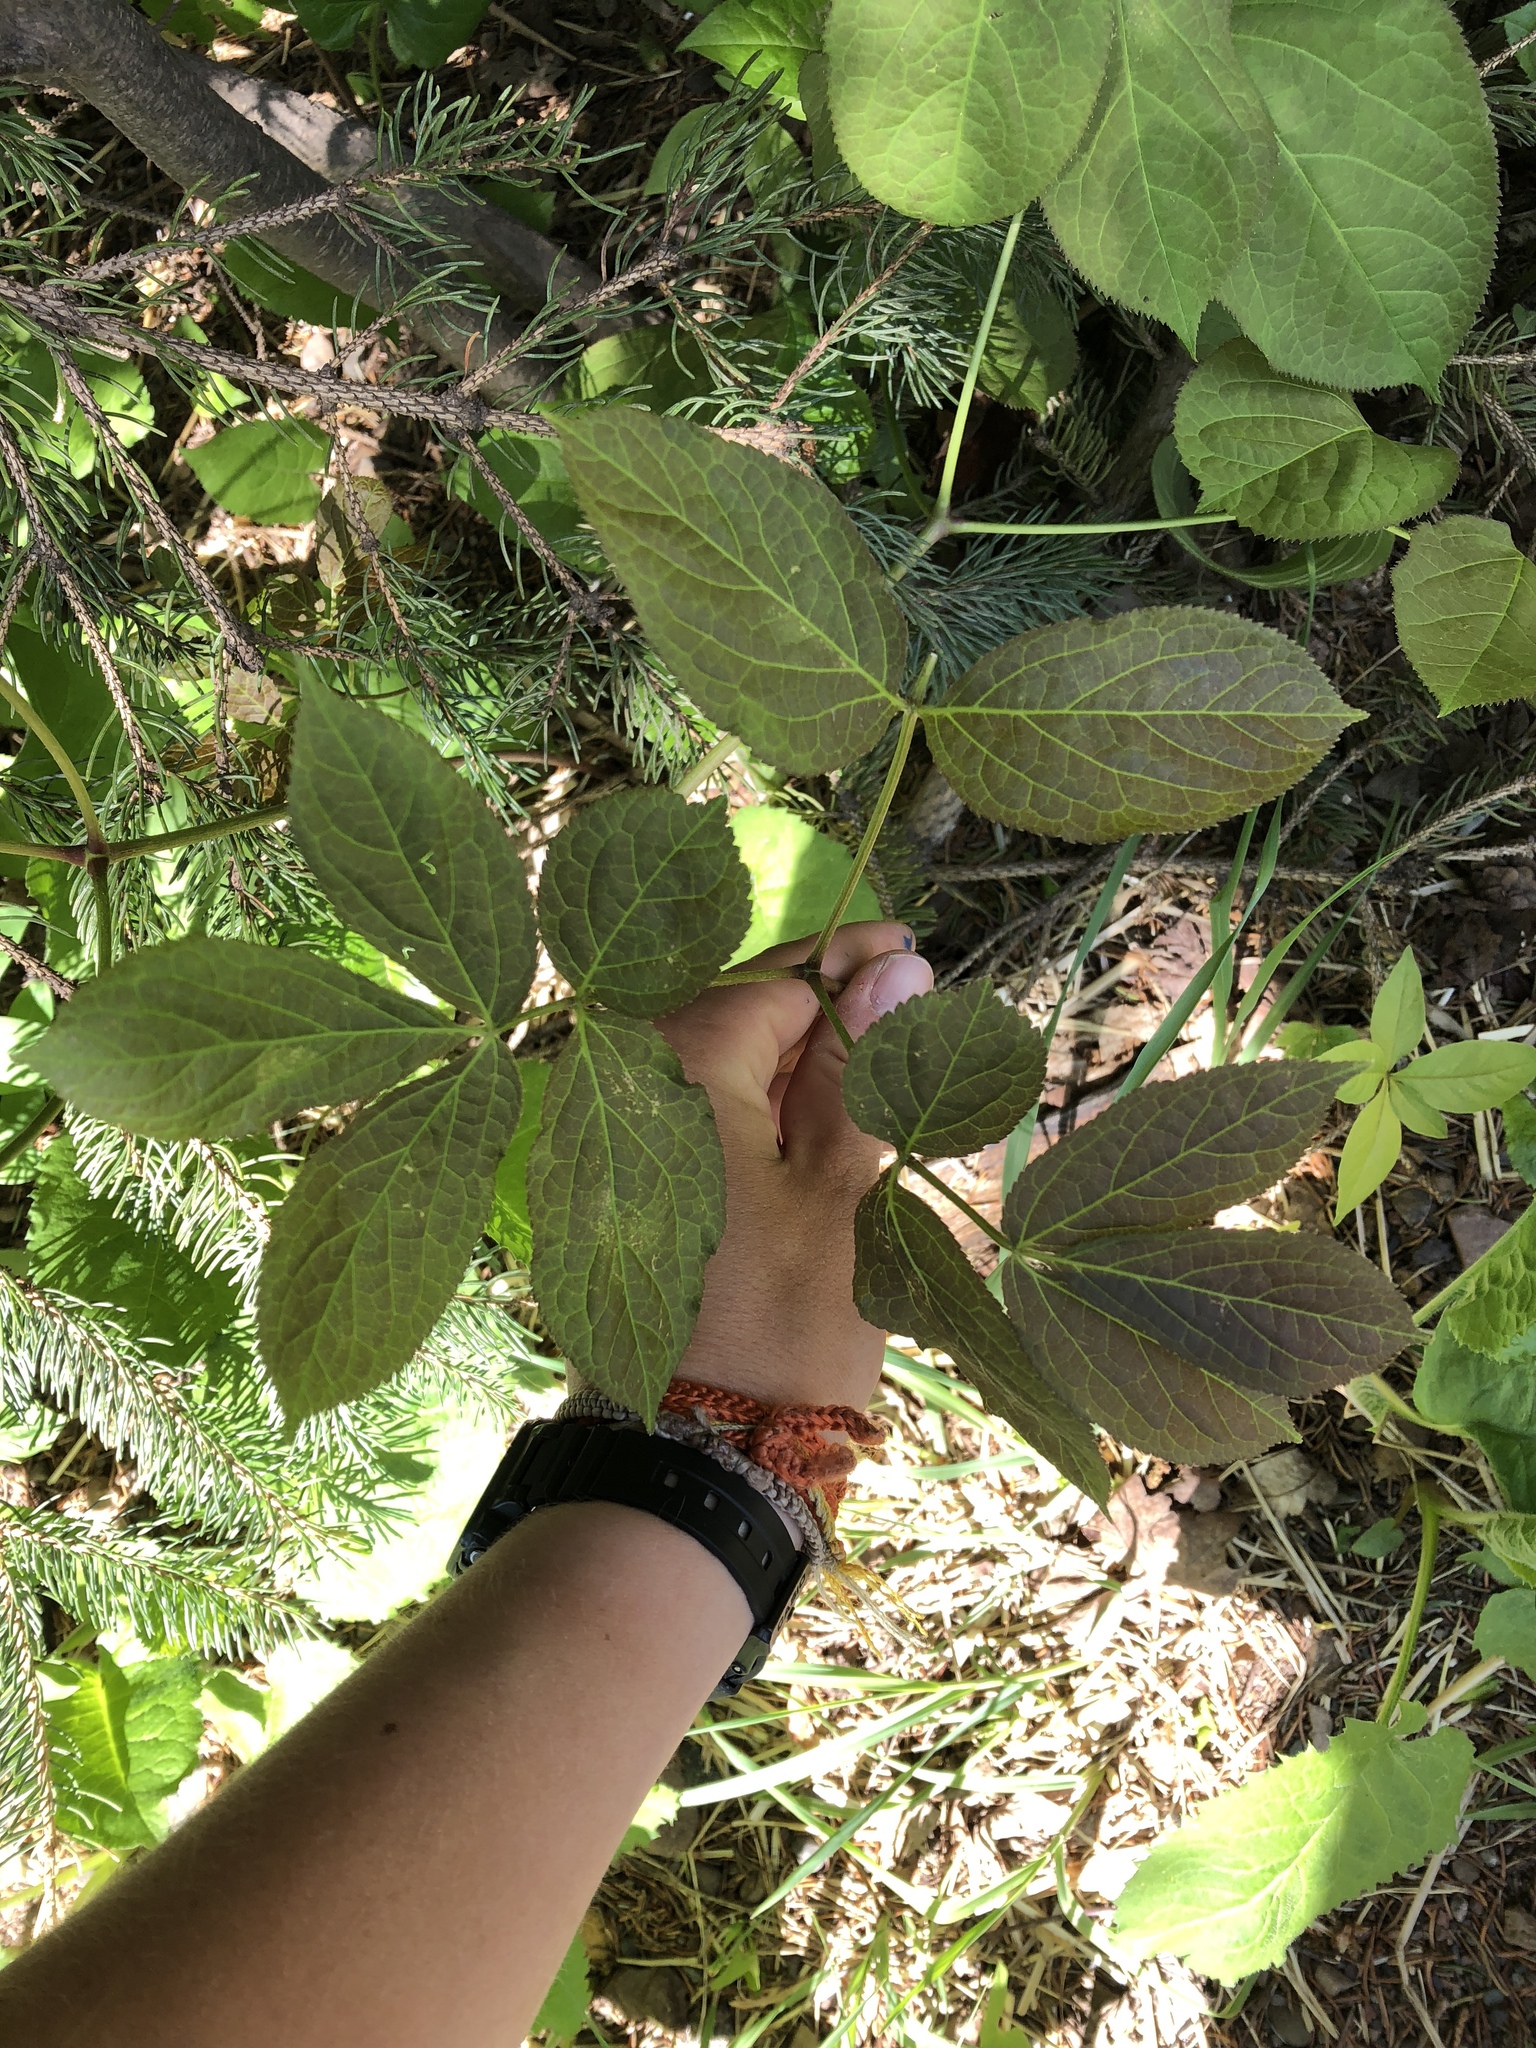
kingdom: Plantae
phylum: Tracheophyta
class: Magnoliopsida
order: Apiales
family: Araliaceae
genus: Aralia
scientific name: Aralia nudicaulis
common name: Wild sarsaparilla
